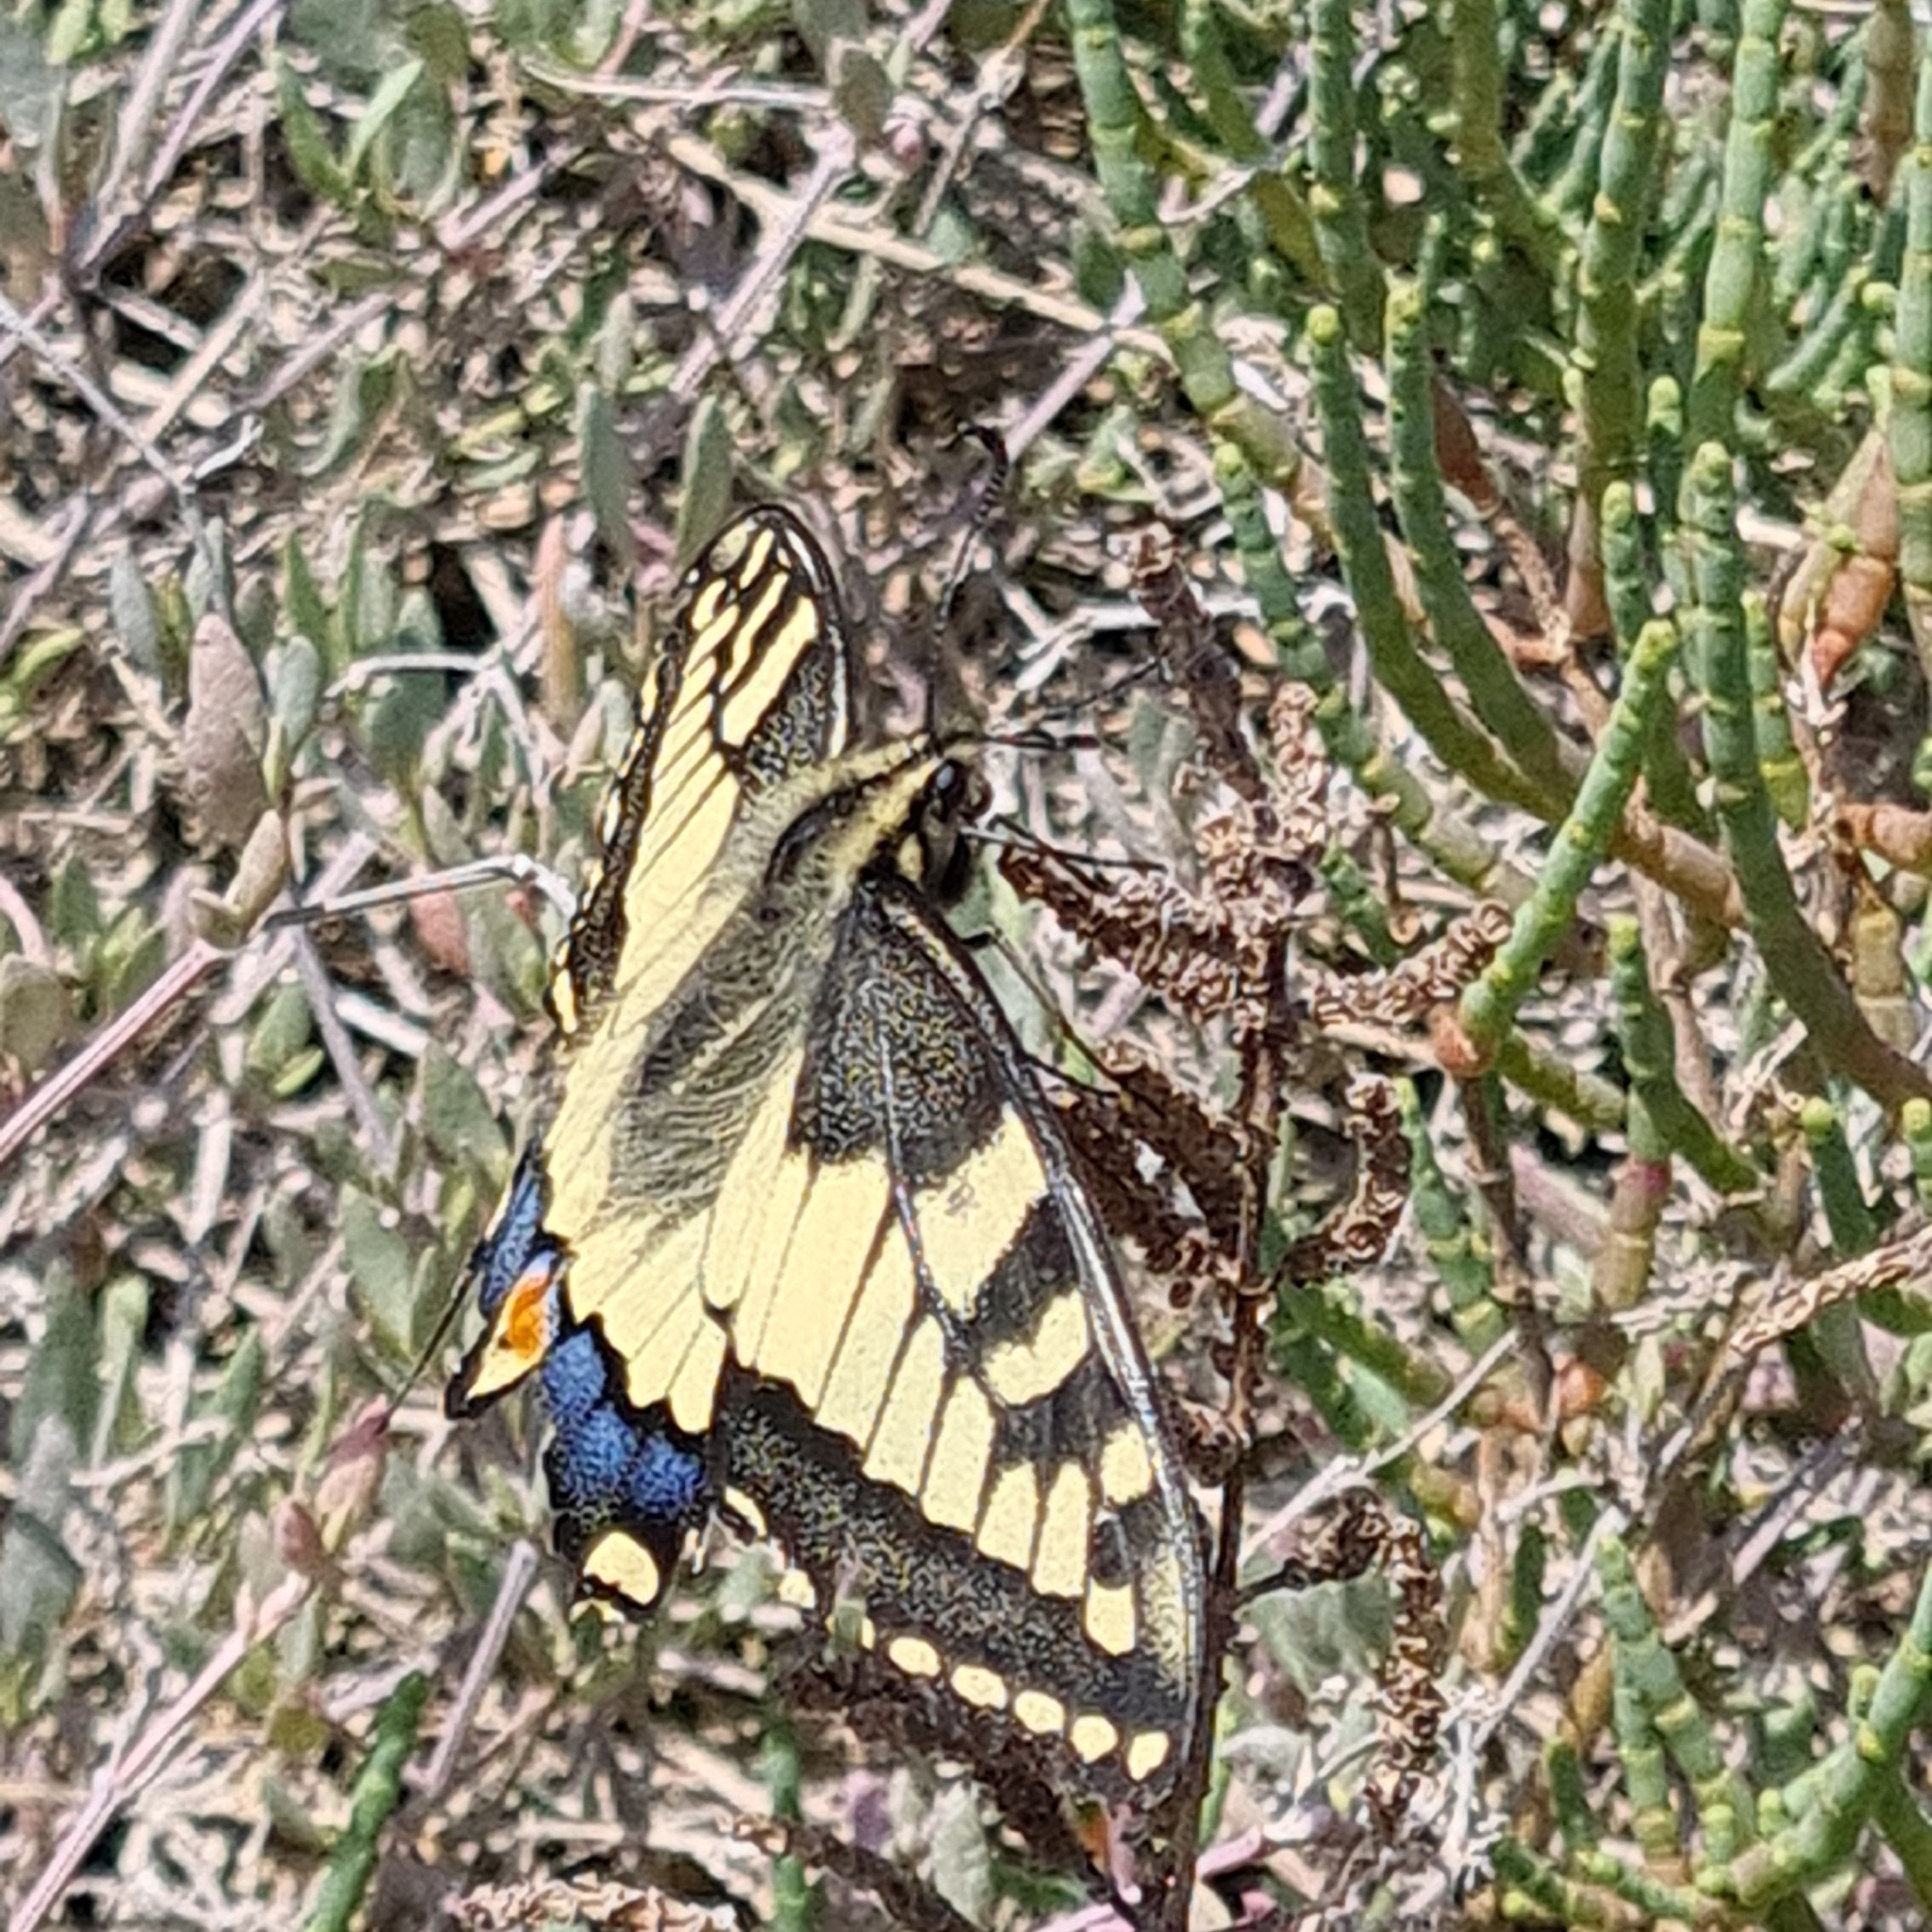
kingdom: Animalia
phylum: Arthropoda
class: Insecta
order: Lepidoptera
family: Papilionidae
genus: Papilio
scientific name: Papilio machaon
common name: Swallowtail
